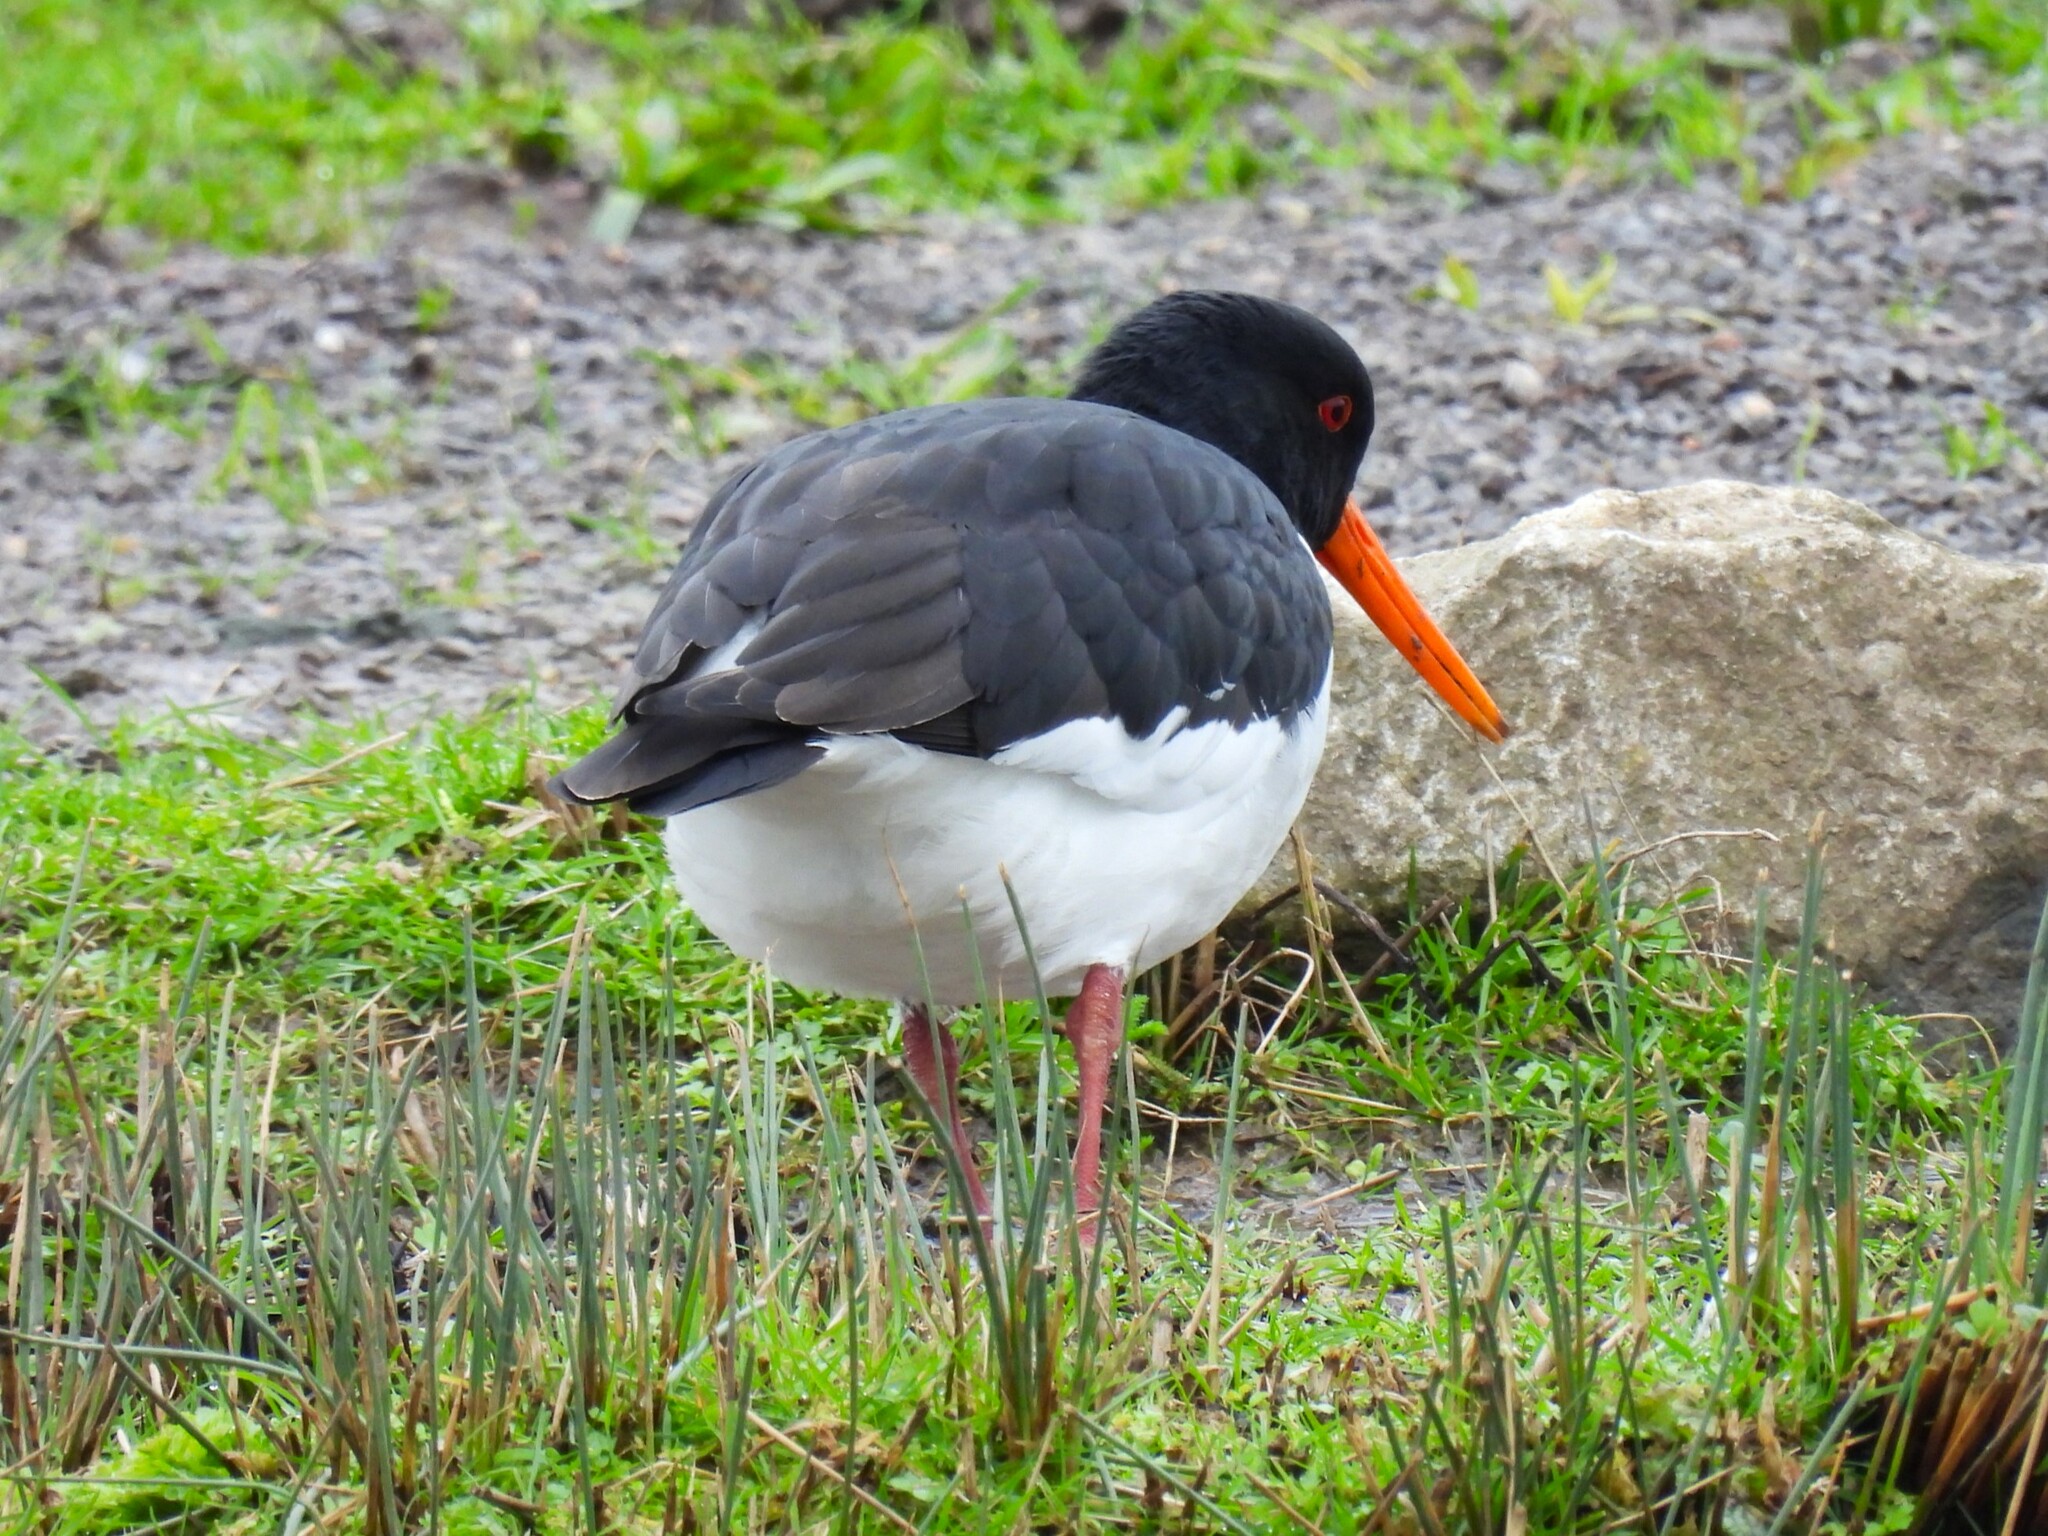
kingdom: Animalia
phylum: Chordata
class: Aves
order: Charadriiformes
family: Haematopodidae
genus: Haematopus
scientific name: Haematopus ostralegus
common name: Eurasian oystercatcher
